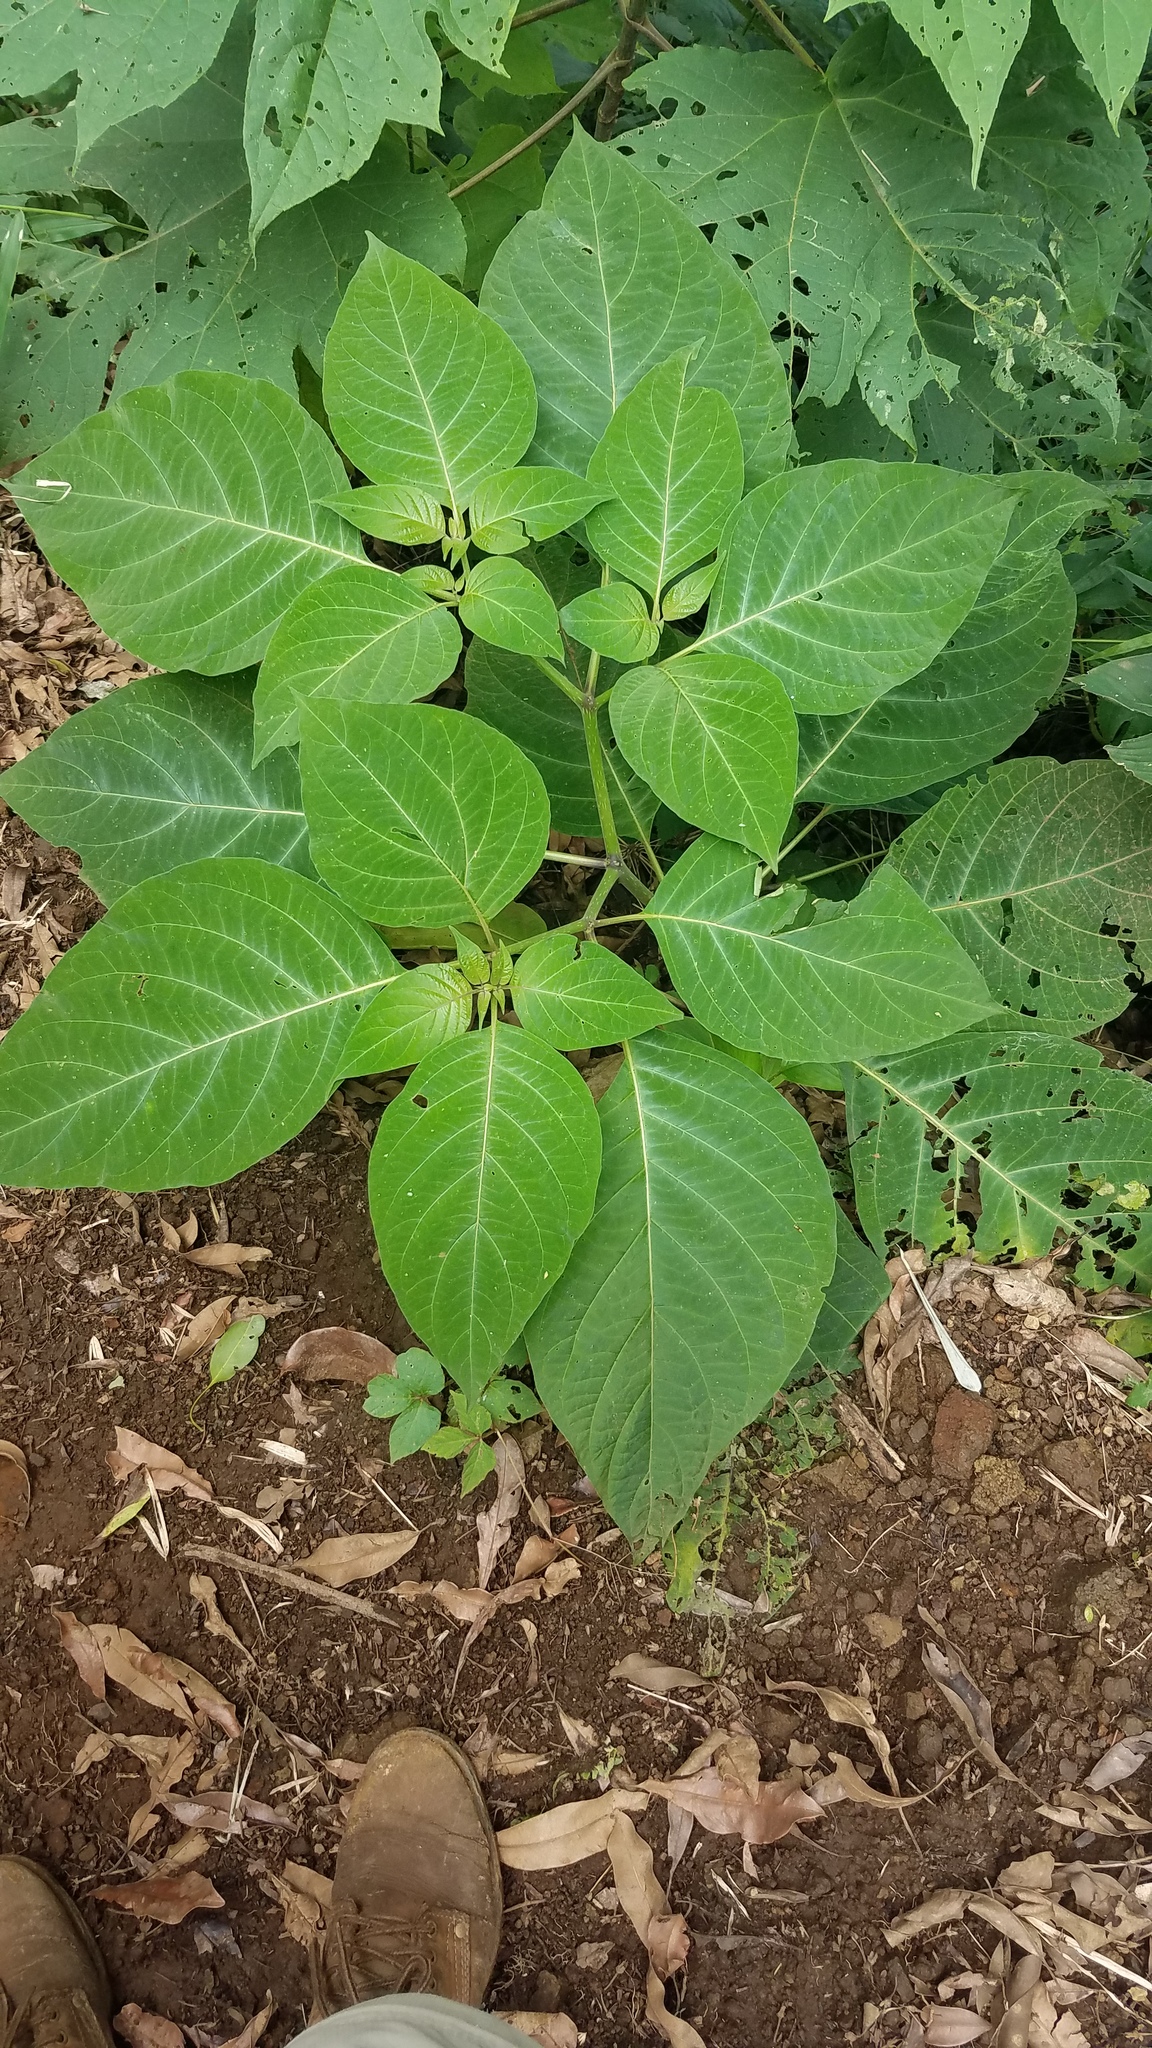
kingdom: Plantae
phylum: Tracheophyta
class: Magnoliopsida
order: Solanales
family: Solanaceae
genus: Lycianthes
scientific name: Lycianthes acapulcensis
